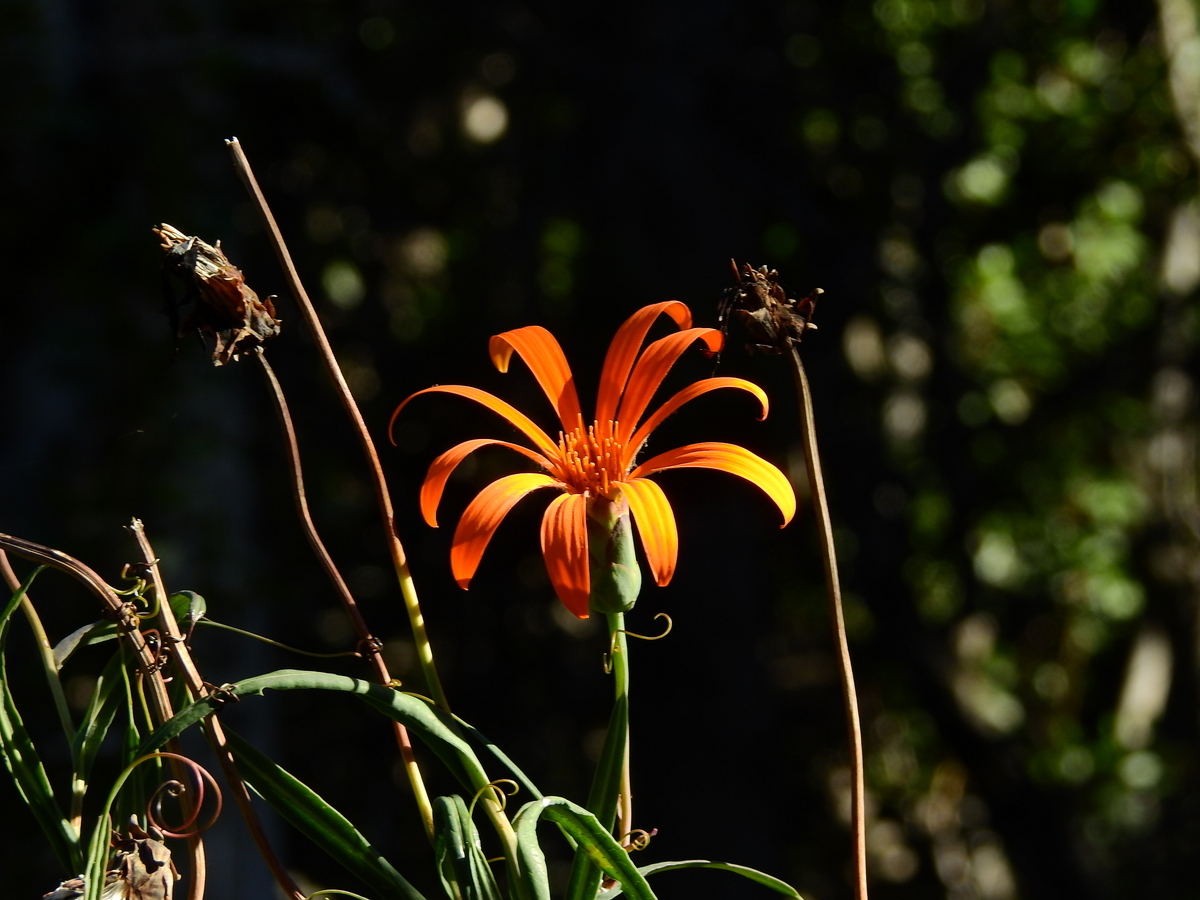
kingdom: Plantae
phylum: Tracheophyta
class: Magnoliopsida
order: Asterales
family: Asteraceae
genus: Mutisia
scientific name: Mutisia decurrens
